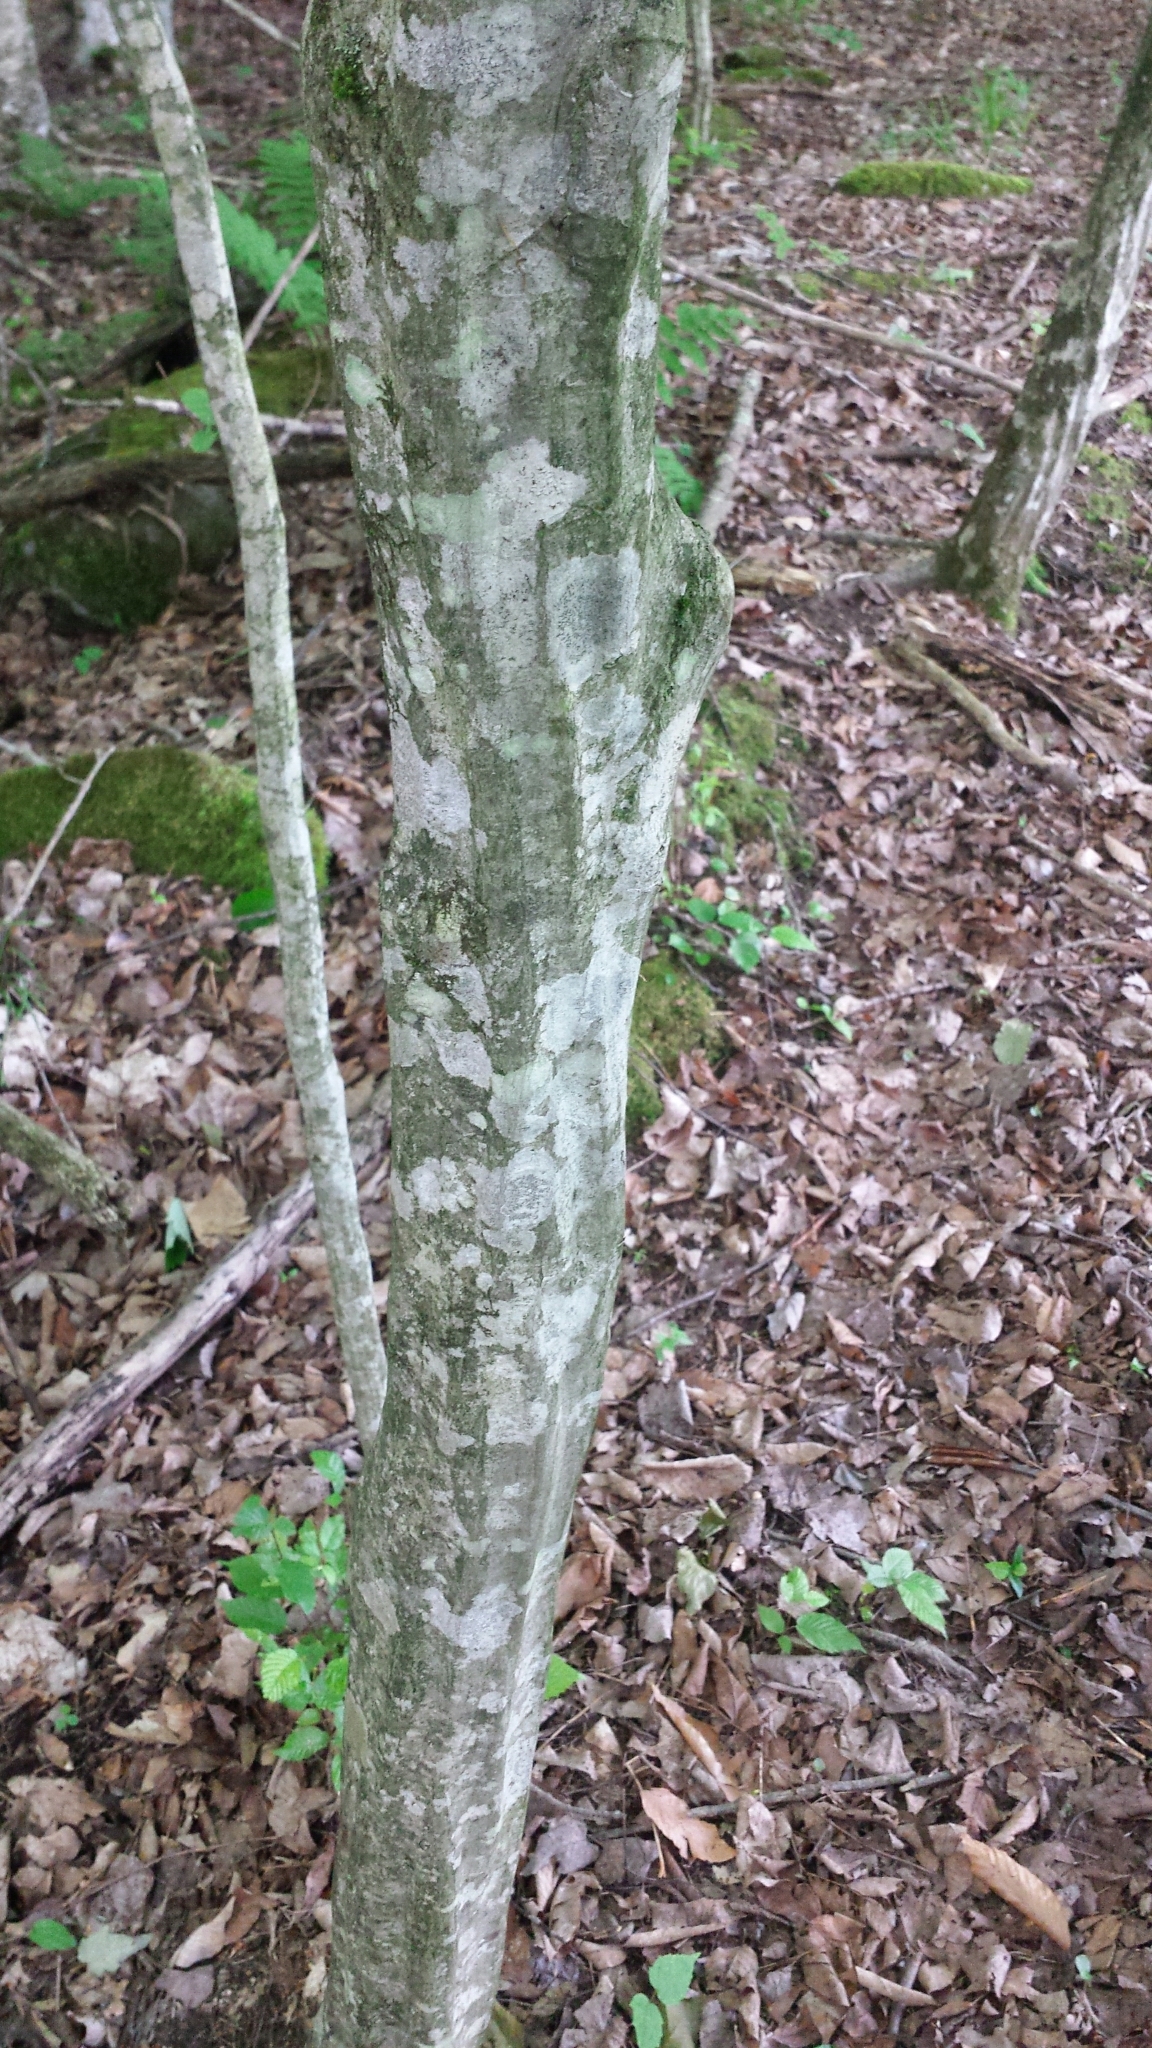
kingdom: Plantae
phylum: Tracheophyta
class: Magnoliopsida
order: Fagales
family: Betulaceae
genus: Carpinus
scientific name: Carpinus caroliniana
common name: American hornbeam
